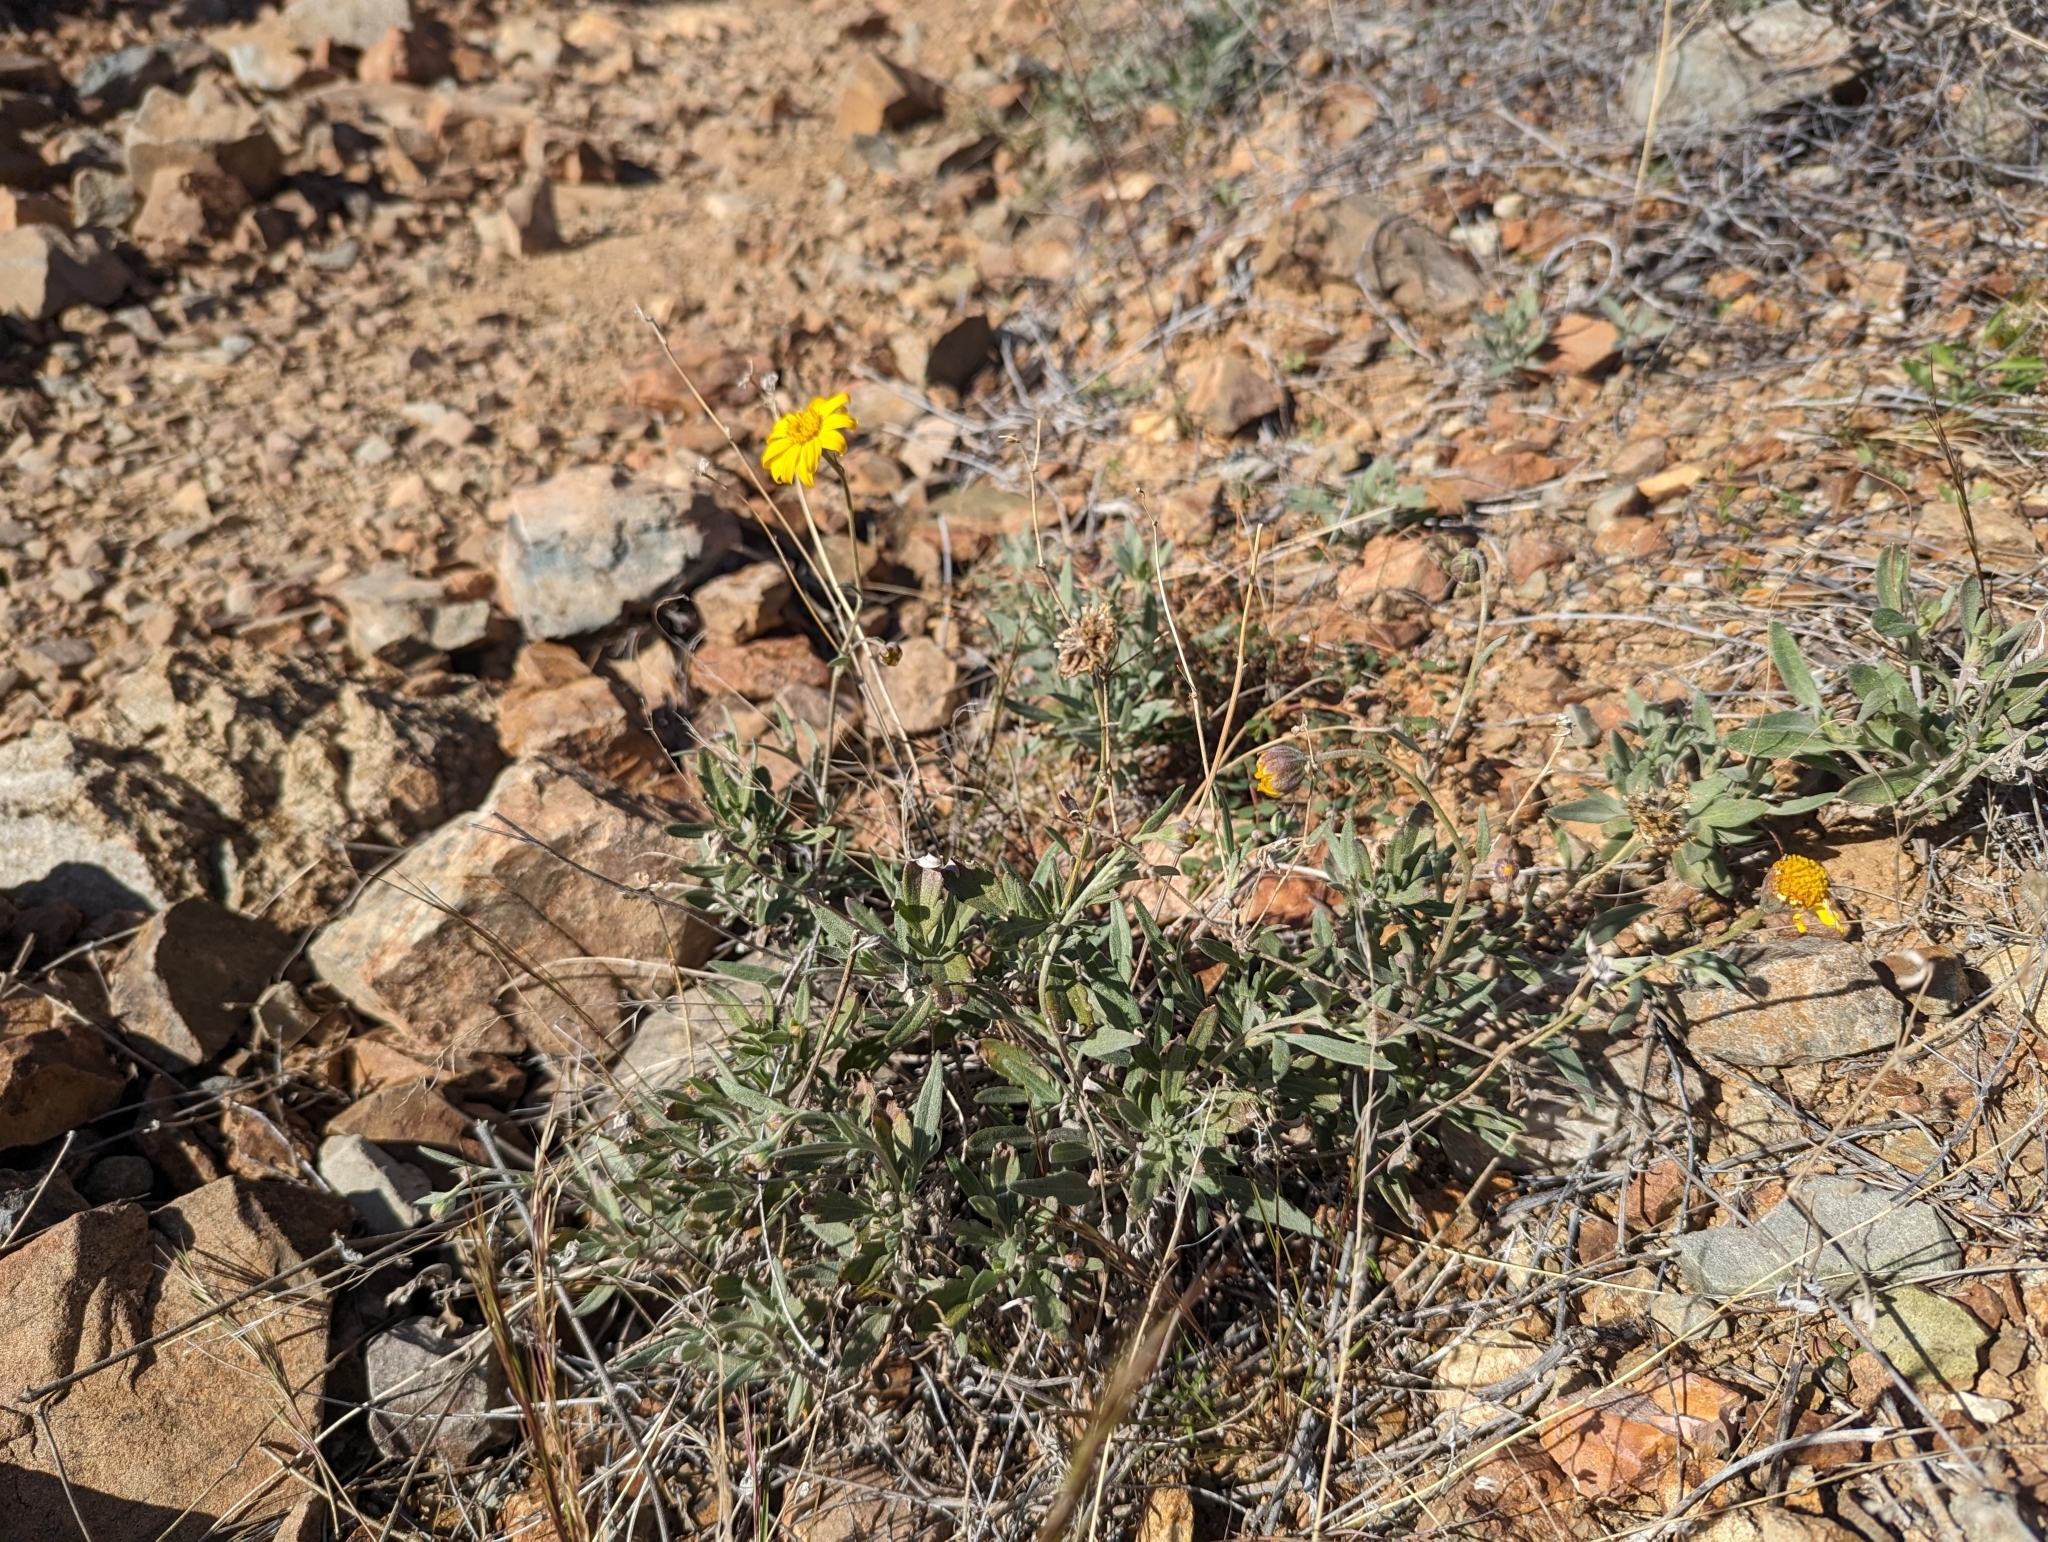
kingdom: Plantae
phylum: Tracheophyta
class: Magnoliopsida
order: Asterales
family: Asteraceae
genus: Picradeniopsis
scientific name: Picradeniopsis absinthifolia
